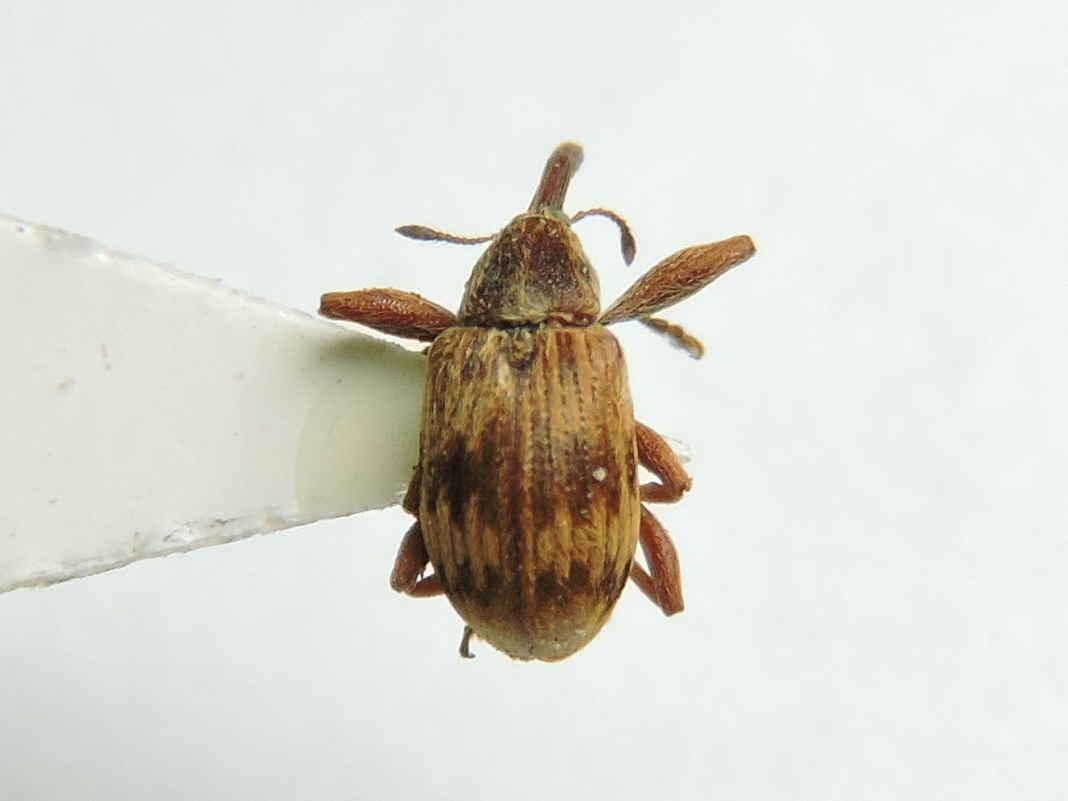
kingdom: Animalia
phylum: Arthropoda
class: Insecta
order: Coleoptera
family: Curculionidae
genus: Anthonomus
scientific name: Anthonomus rectirostris
